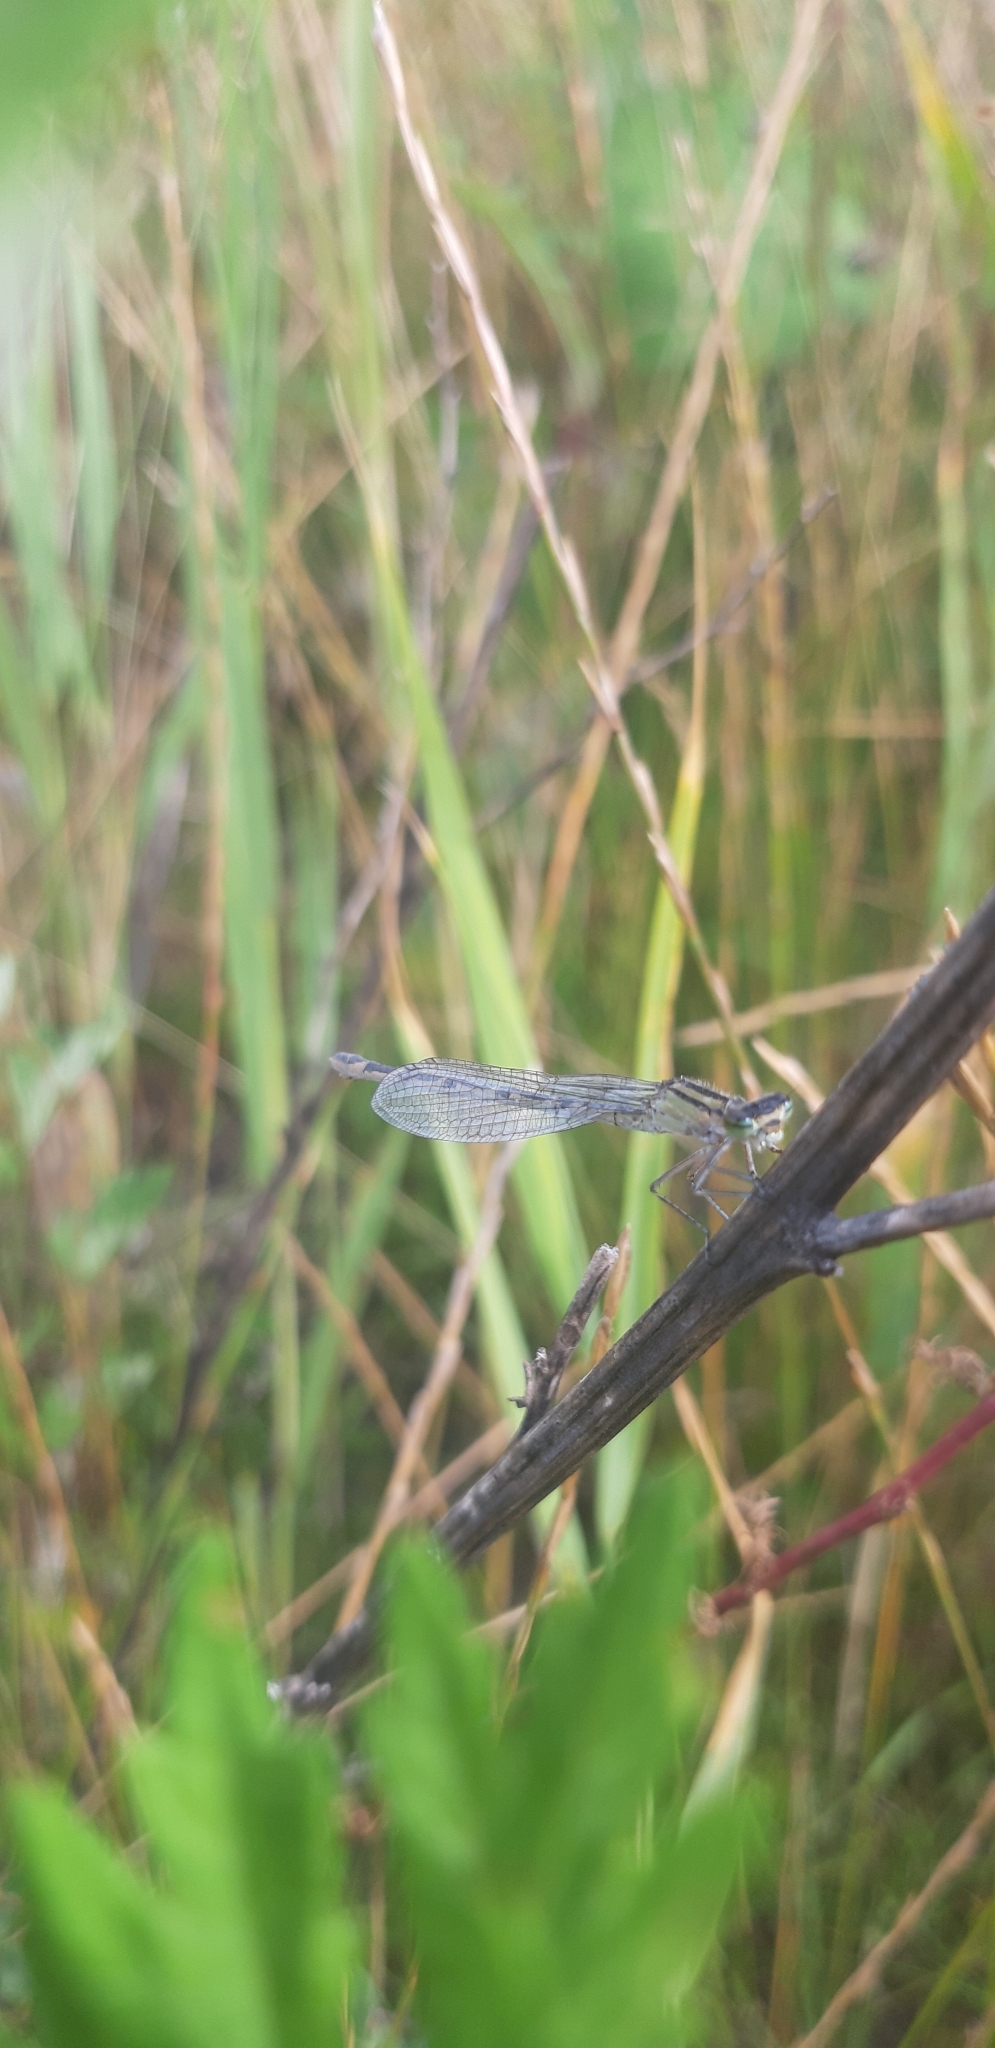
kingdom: Animalia
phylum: Arthropoda
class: Insecta
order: Odonata
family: Lestidae
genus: Sympecma
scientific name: Sympecma paedisca
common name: Siberian winter damsel
